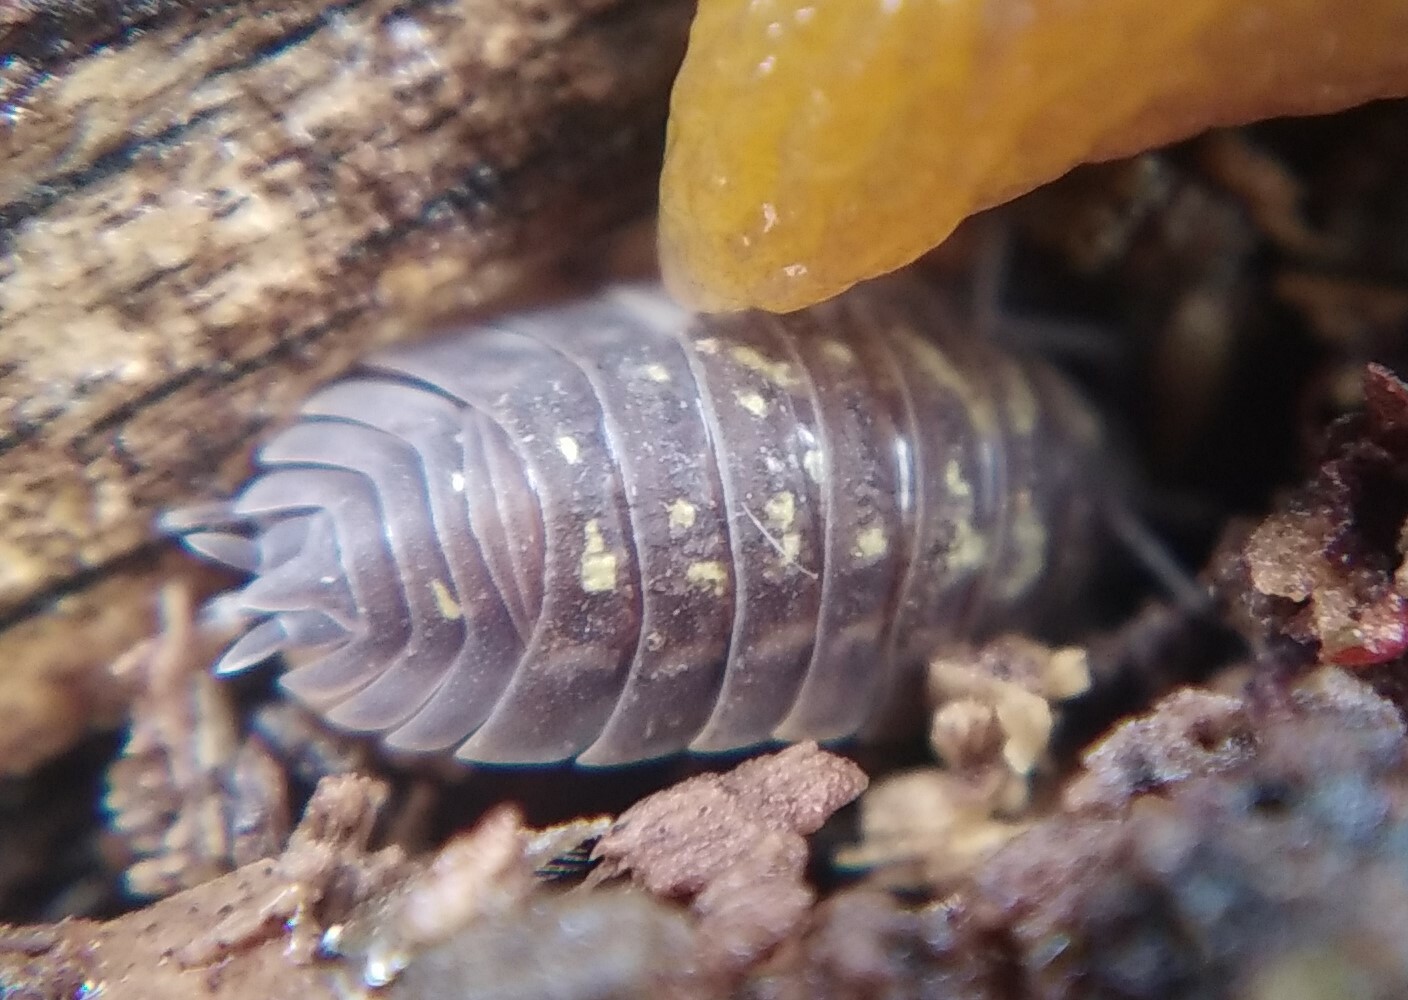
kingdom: Animalia
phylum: Arthropoda
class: Malacostraca
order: Isopoda
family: Oniscidae
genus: Oniscus
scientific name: Oniscus asellus
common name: Common shiny woodlouse
